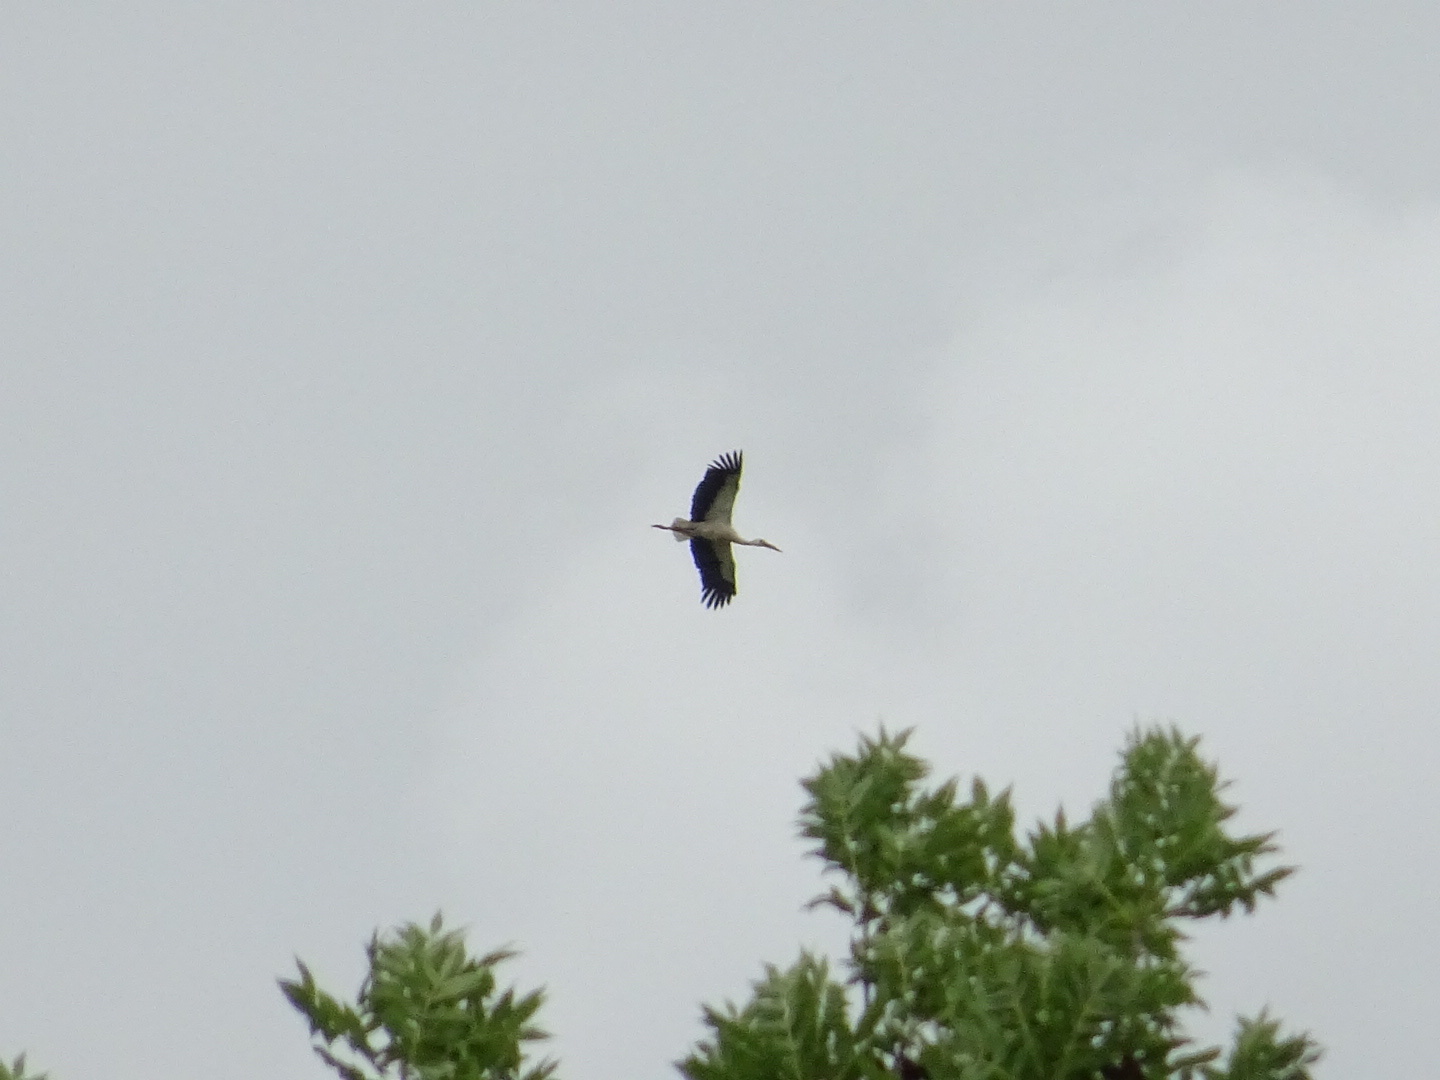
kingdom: Animalia
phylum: Chordata
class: Aves
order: Ciconiiformes
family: Ciconiidae
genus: Ciconia
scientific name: Ciconia ciconia
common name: White stork
